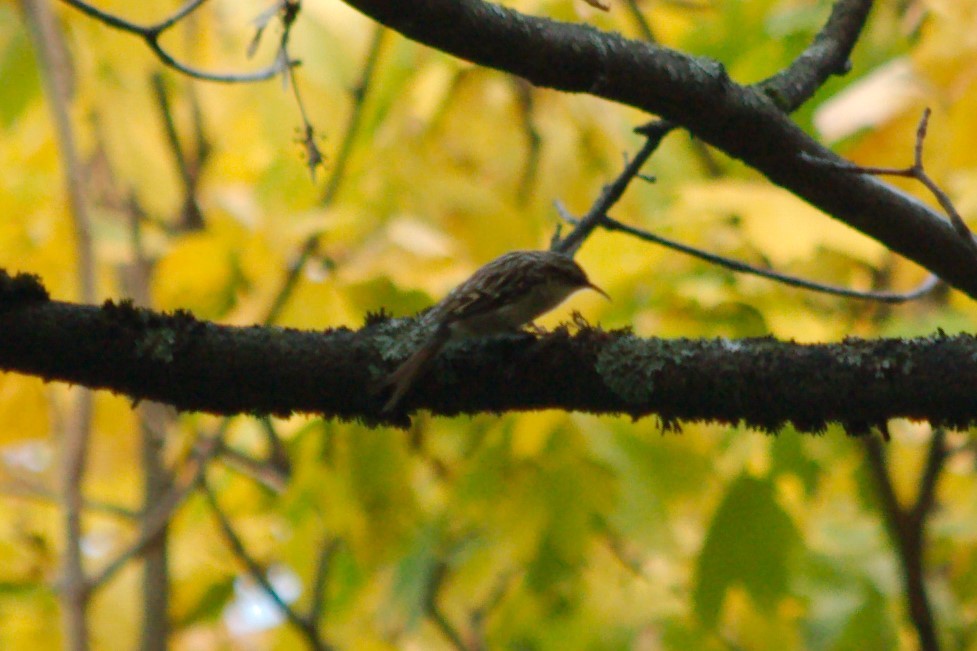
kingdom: Animalia
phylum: Chordata
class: Aves
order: Passeriformes
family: Certhiidae
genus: Certhia
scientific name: Certhia
